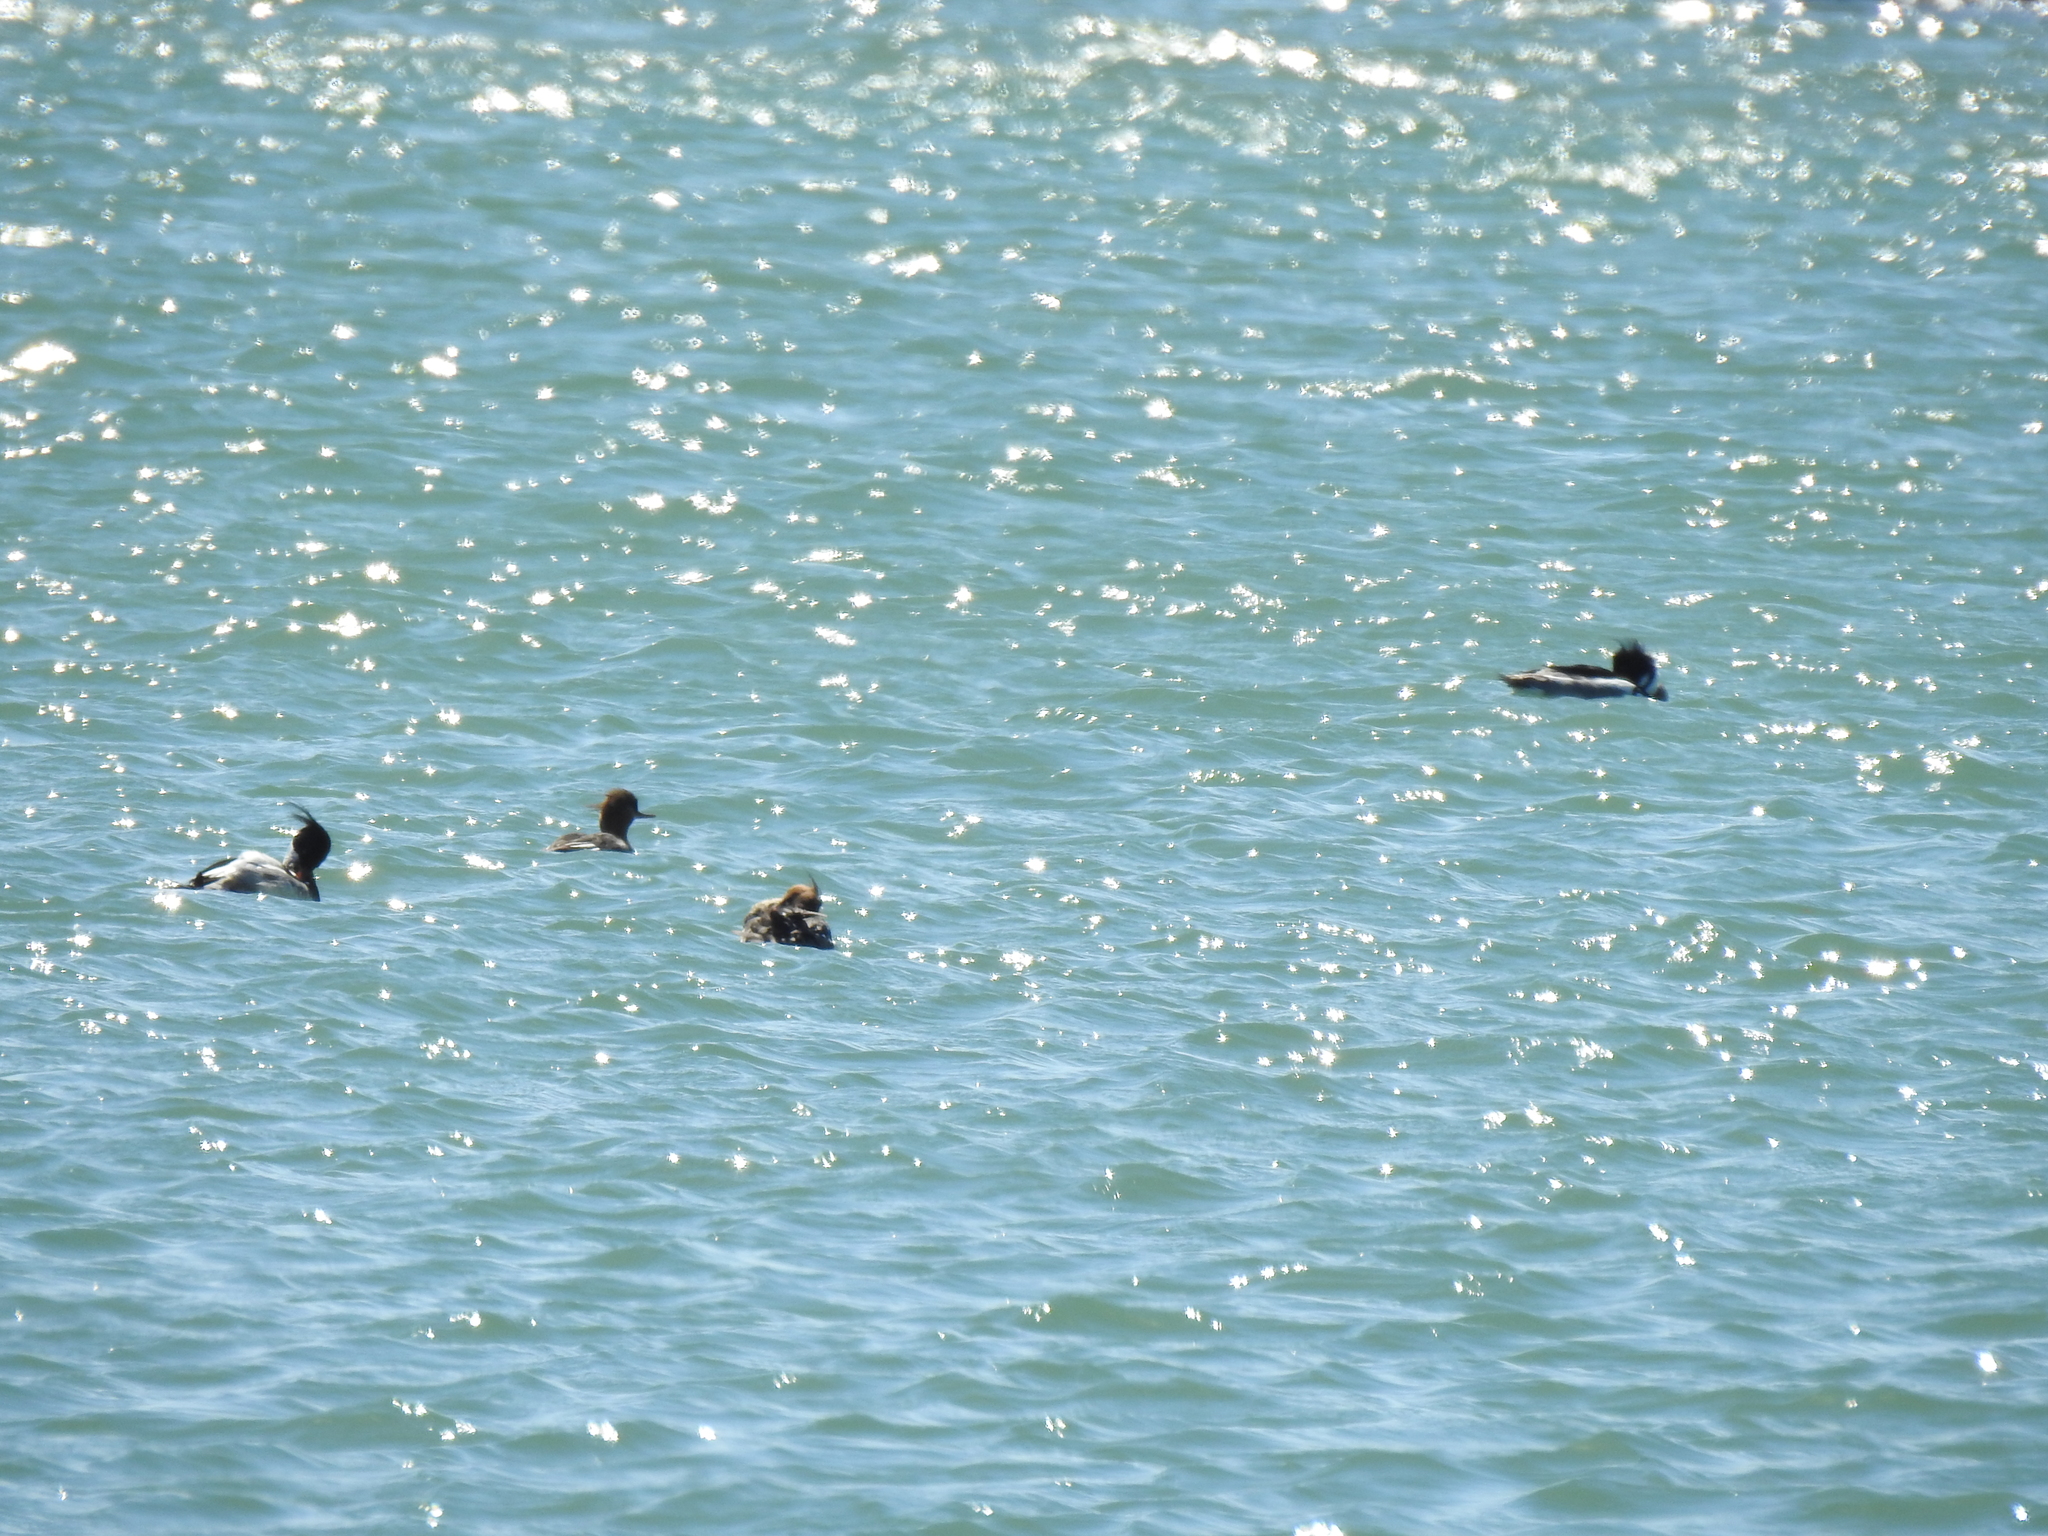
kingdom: Animalia
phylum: Chordata
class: Aves
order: Anseriformes
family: Anatidae
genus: Mergus
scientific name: Mergus serrator
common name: Red-breasted merganser
